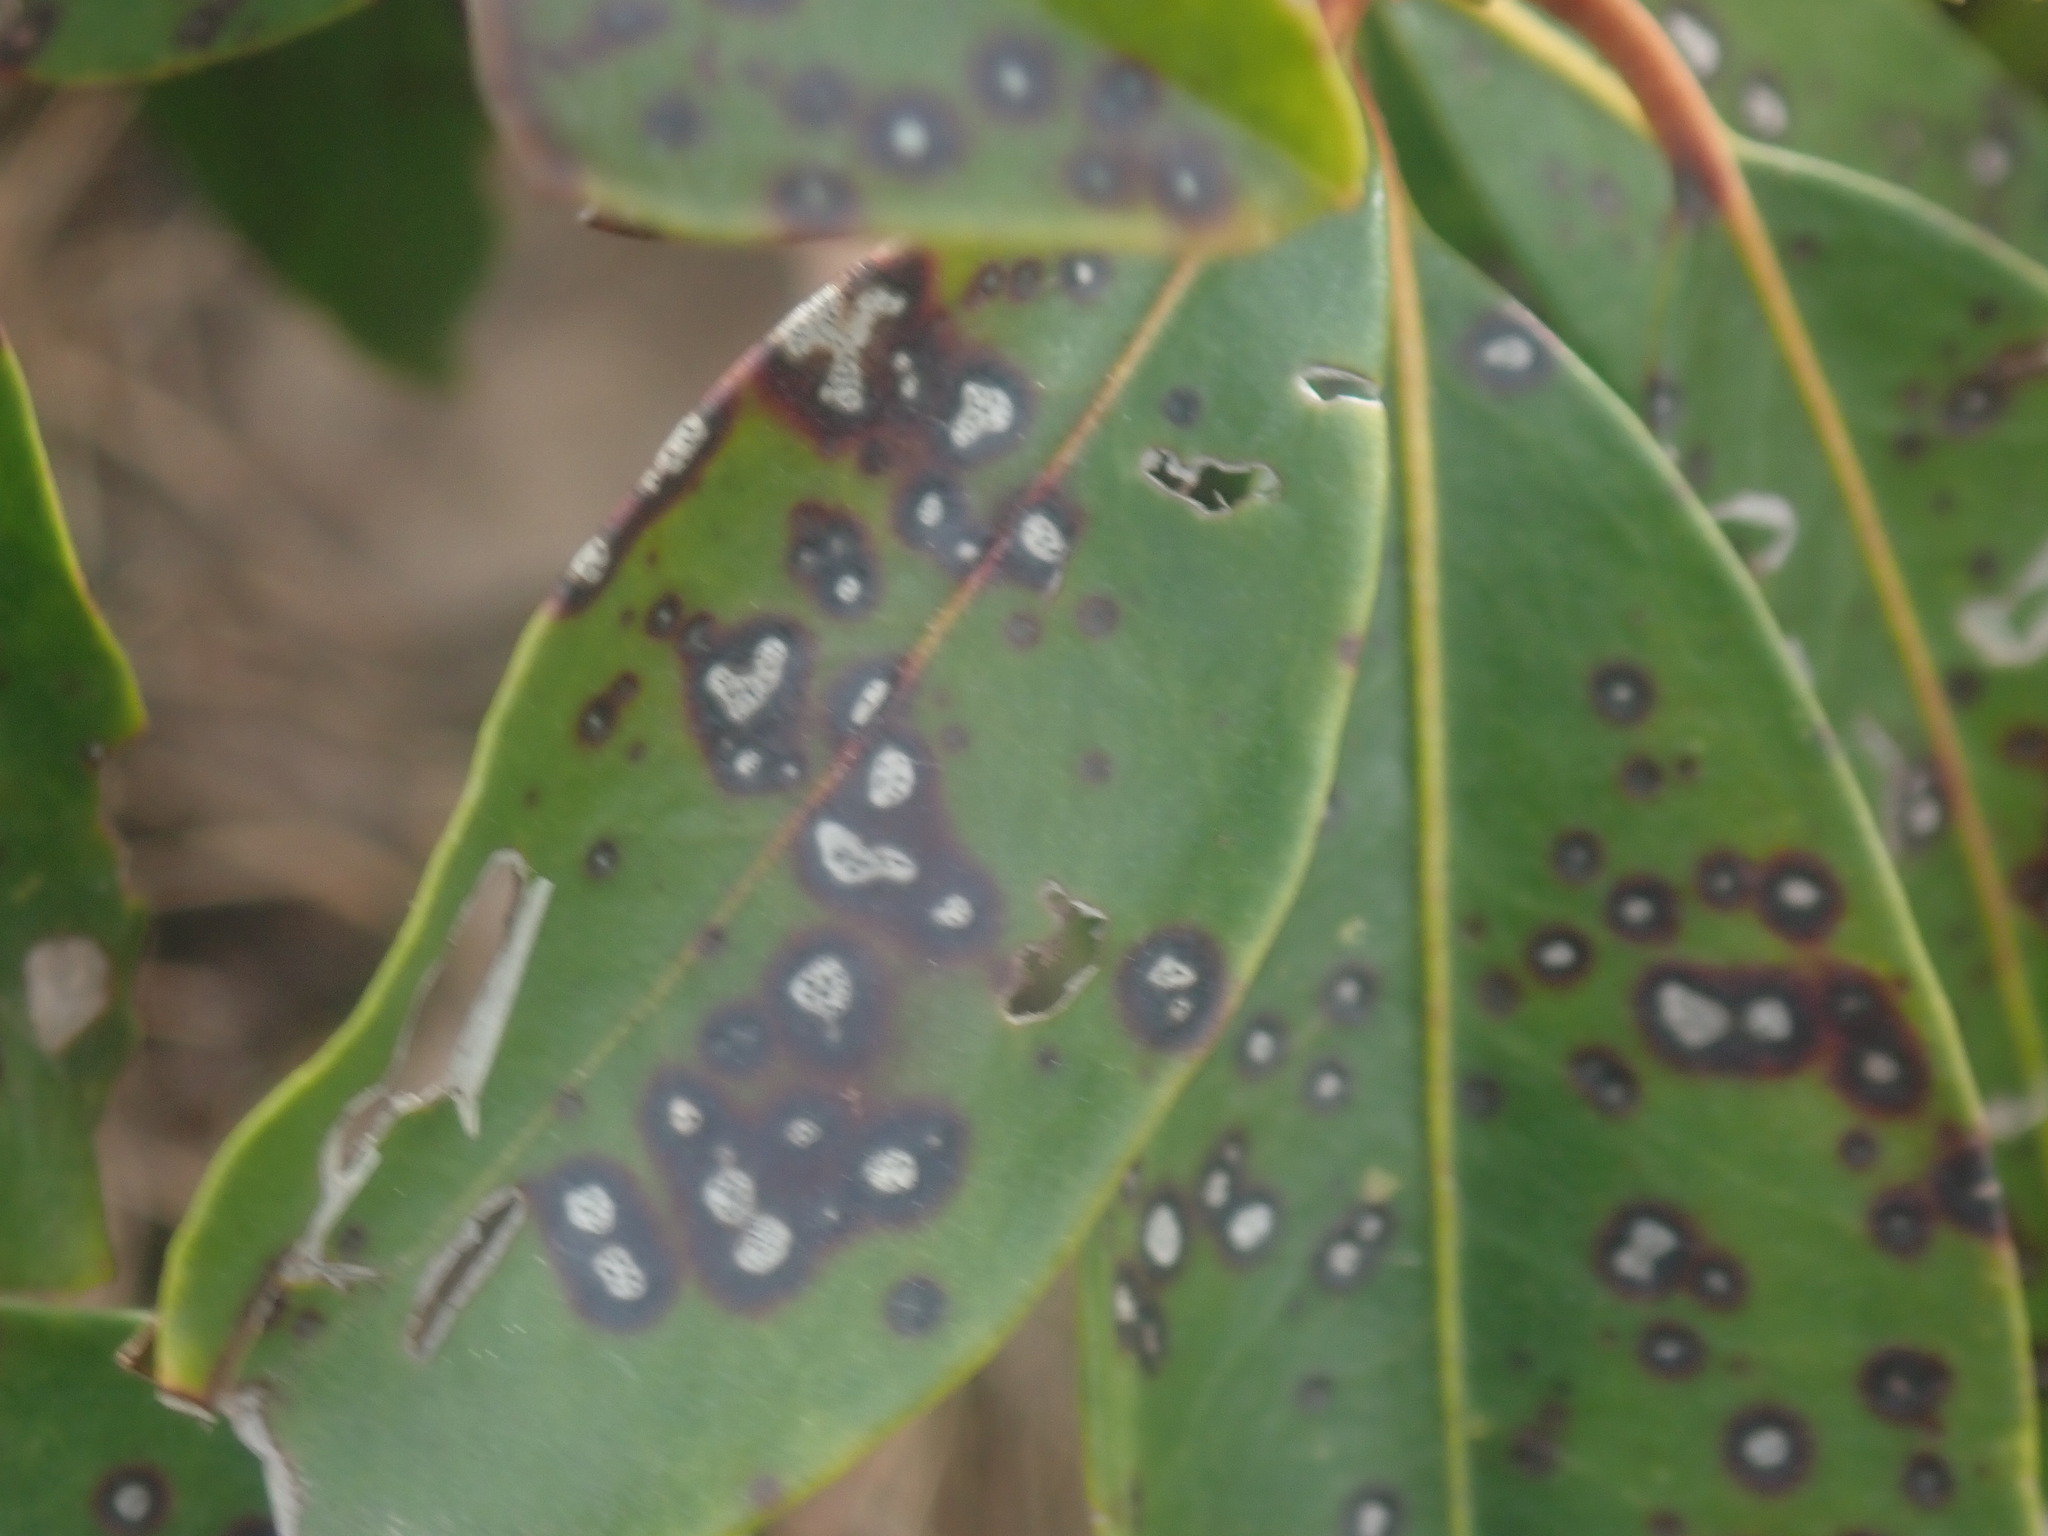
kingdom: Fungi
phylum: Ascomycota
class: Dothideomycetes
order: Mycosphaerellales
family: Mycosphaerellaceae
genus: Mycosphaerella
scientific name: Mycosphaerella colorata
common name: Mountain laurel leaf spot
